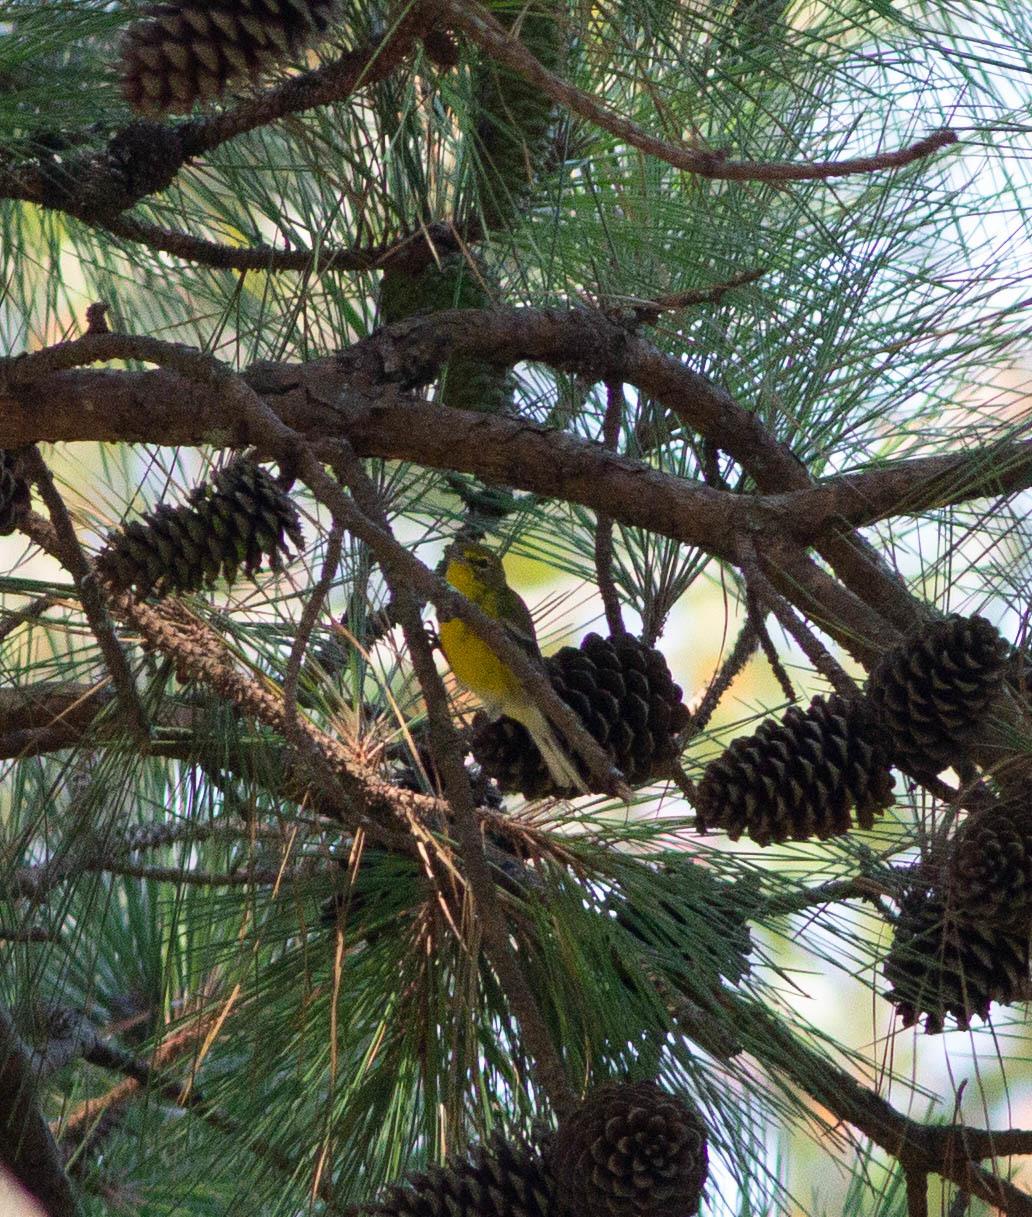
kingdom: Animalia
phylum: Chordata
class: Aves
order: Passeriformes
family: Parulidae
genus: Setophaga
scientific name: Setophaga pinus
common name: Pine warbler
